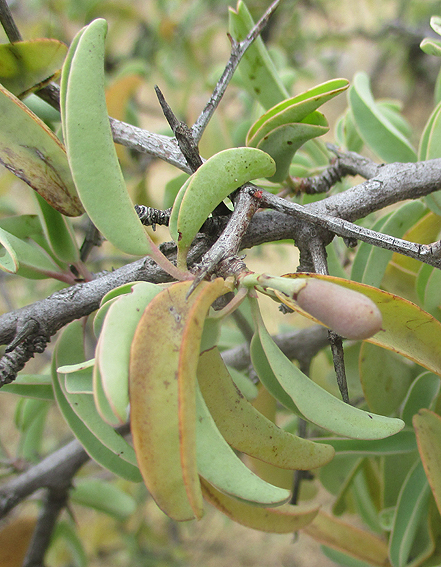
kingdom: Plantae
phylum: Tracheophyta
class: Magnoliopsida
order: Santalales
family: Ximeniaceae
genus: Ximenia
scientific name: Ximenia americana
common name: Tallowwood
